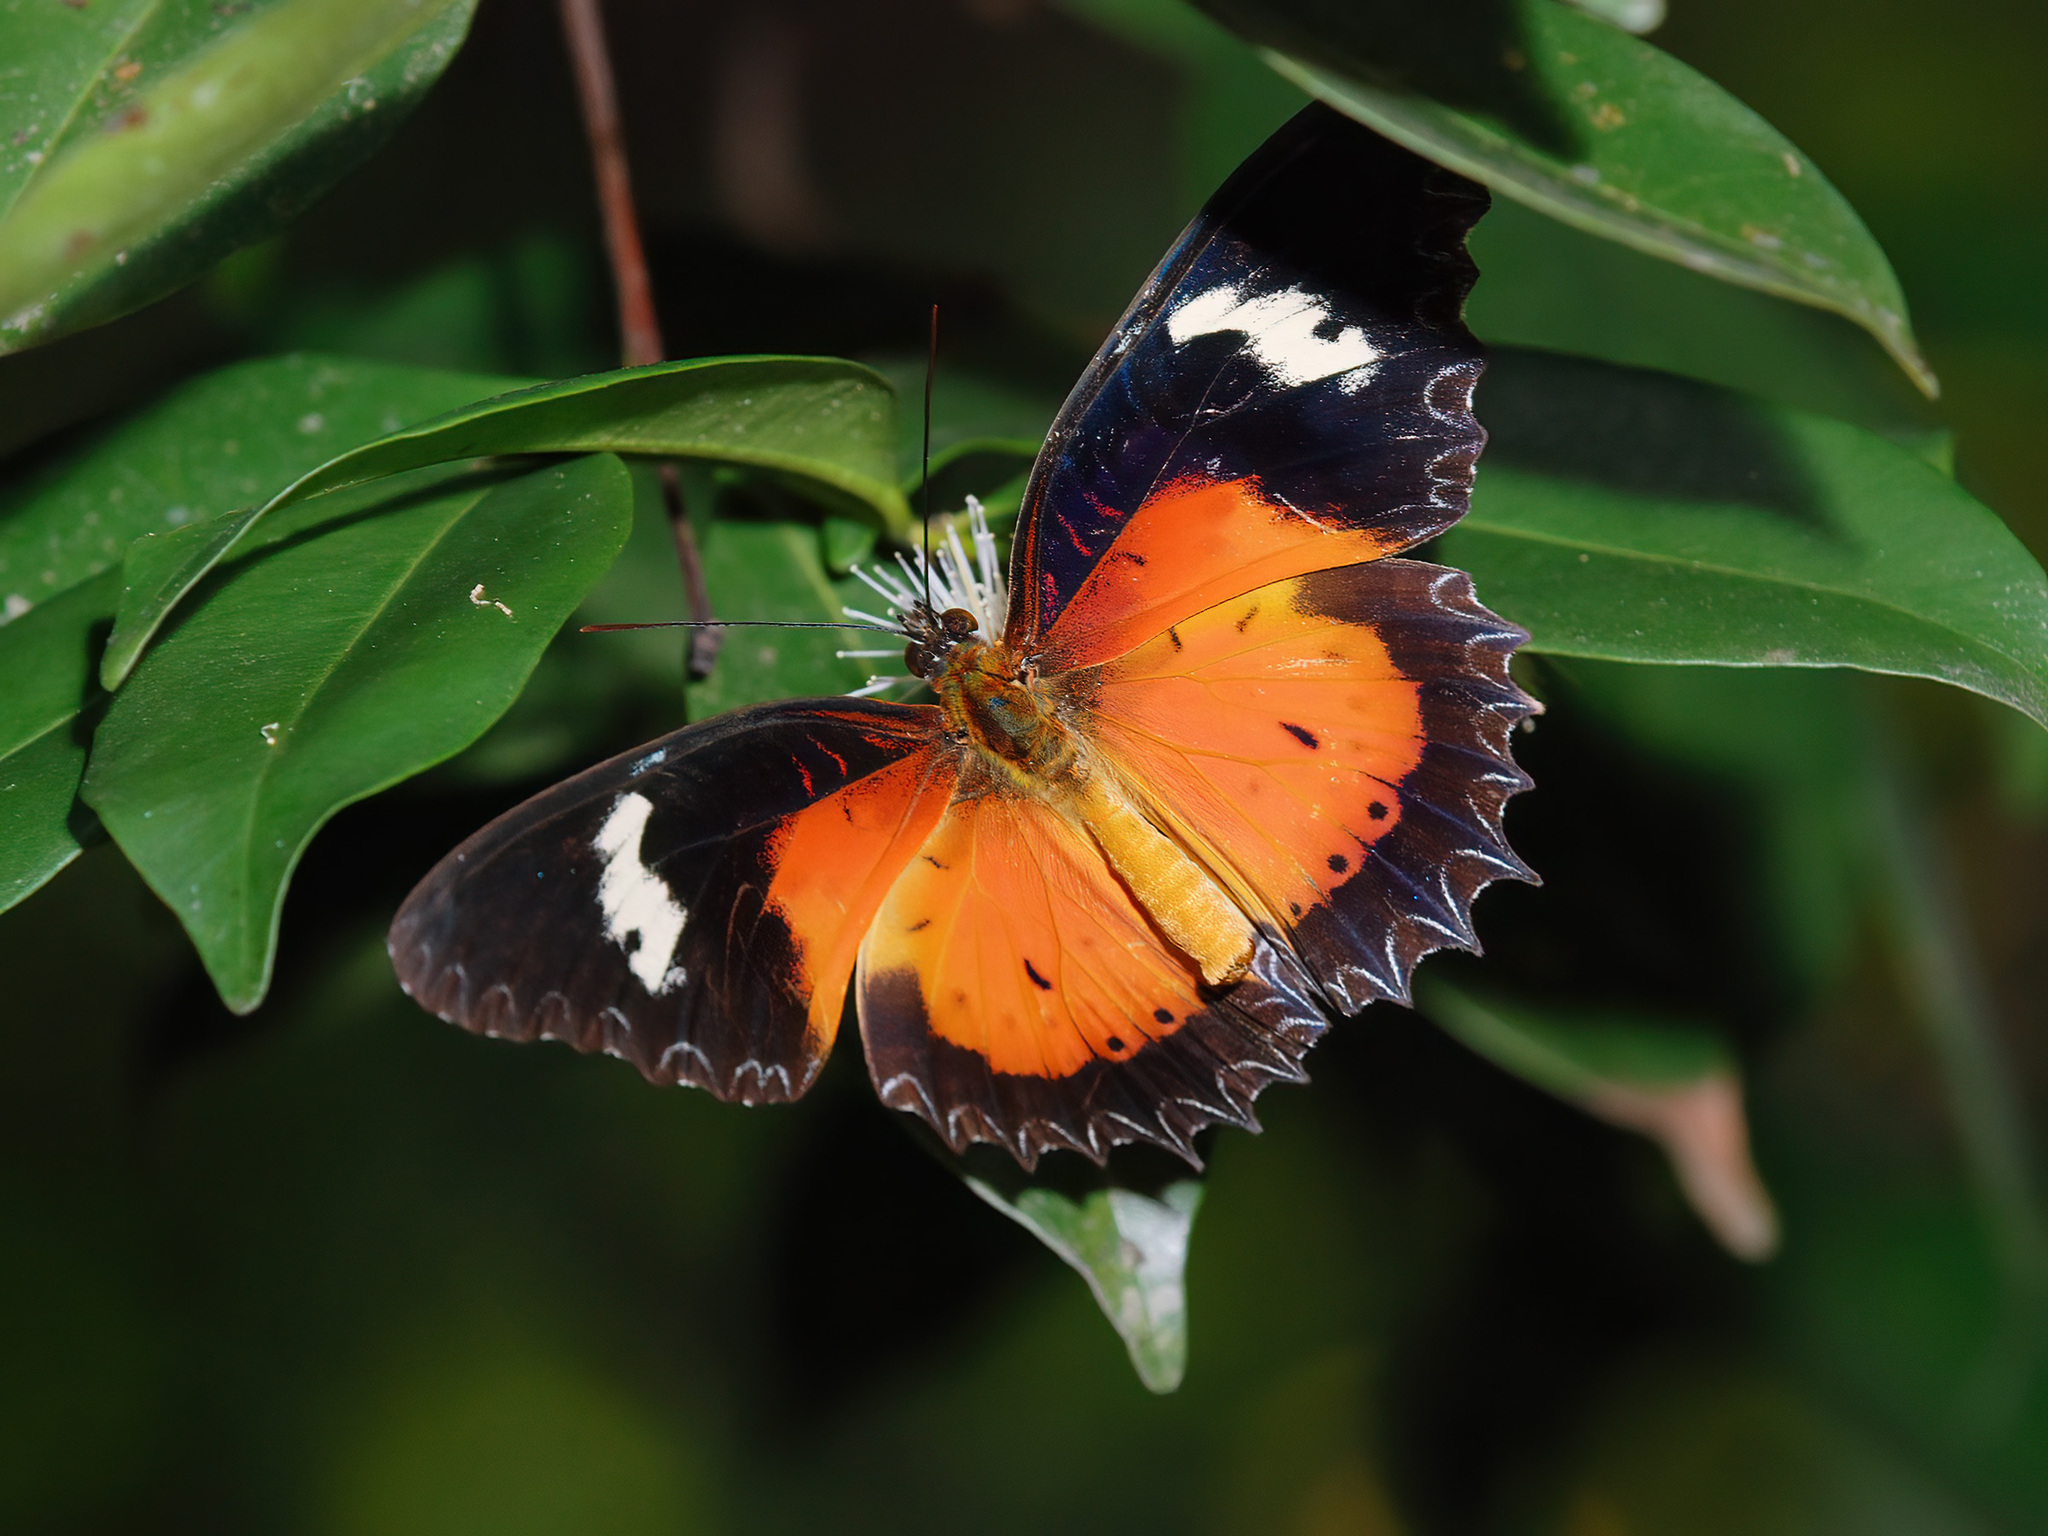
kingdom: Animalia
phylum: Arthropoda
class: Insecta
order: Lepidoptera
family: Nymphalidae
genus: Cethosia
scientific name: Cethosia hypsea
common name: Malayan lacewing butterfly
